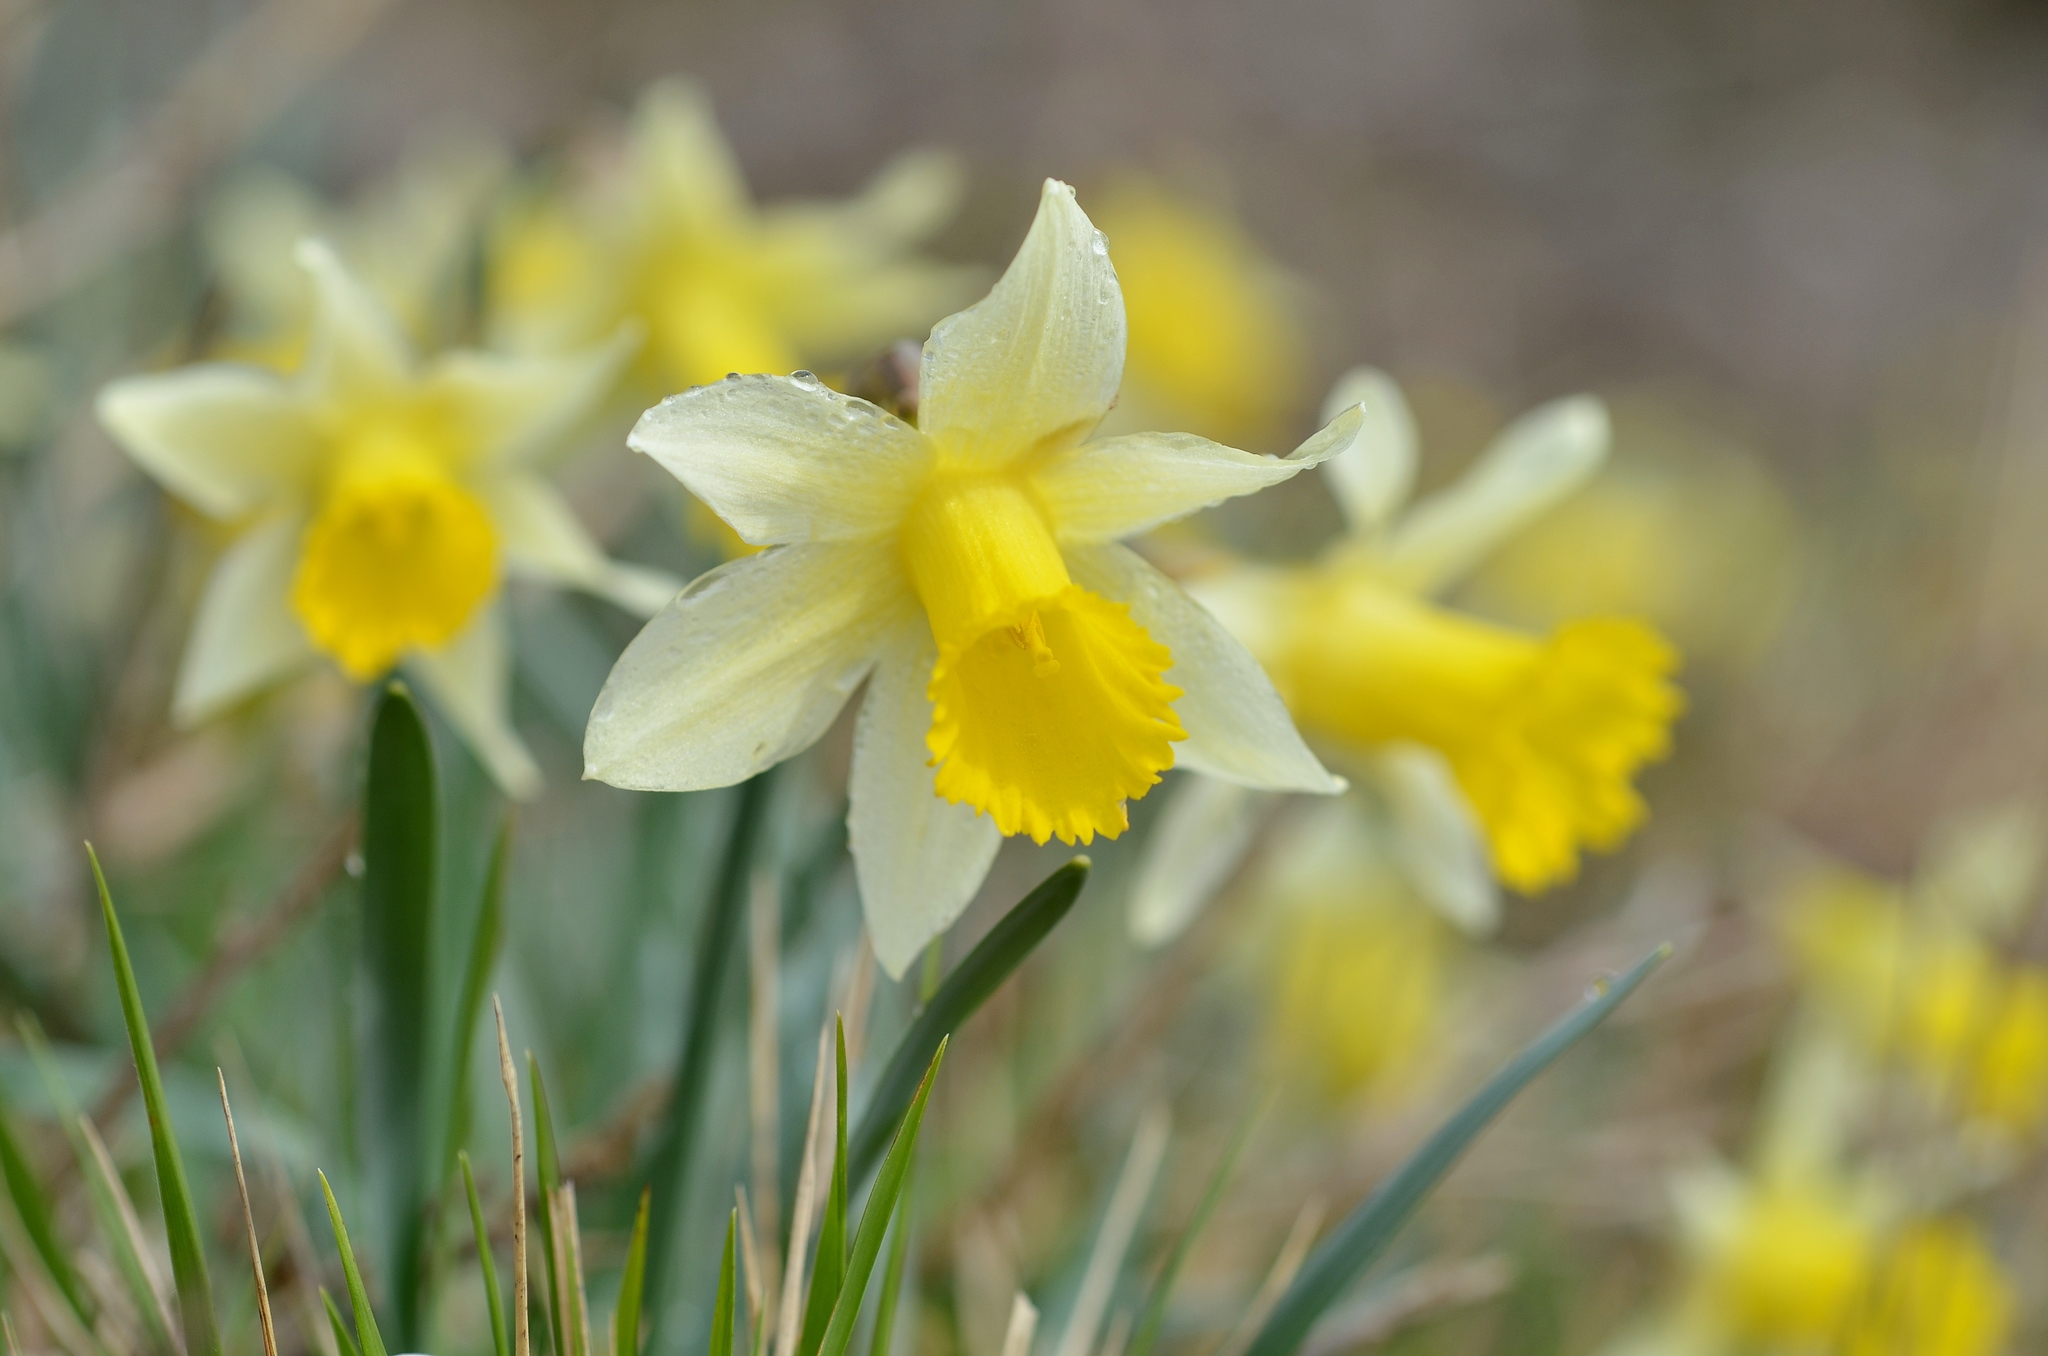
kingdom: Plantae
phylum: Tracheophyta
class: Liliopsida
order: Asparagales
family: Amaryllidaceae
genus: Narcissus
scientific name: Narcissus pseudonarcissus
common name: Daffodil
